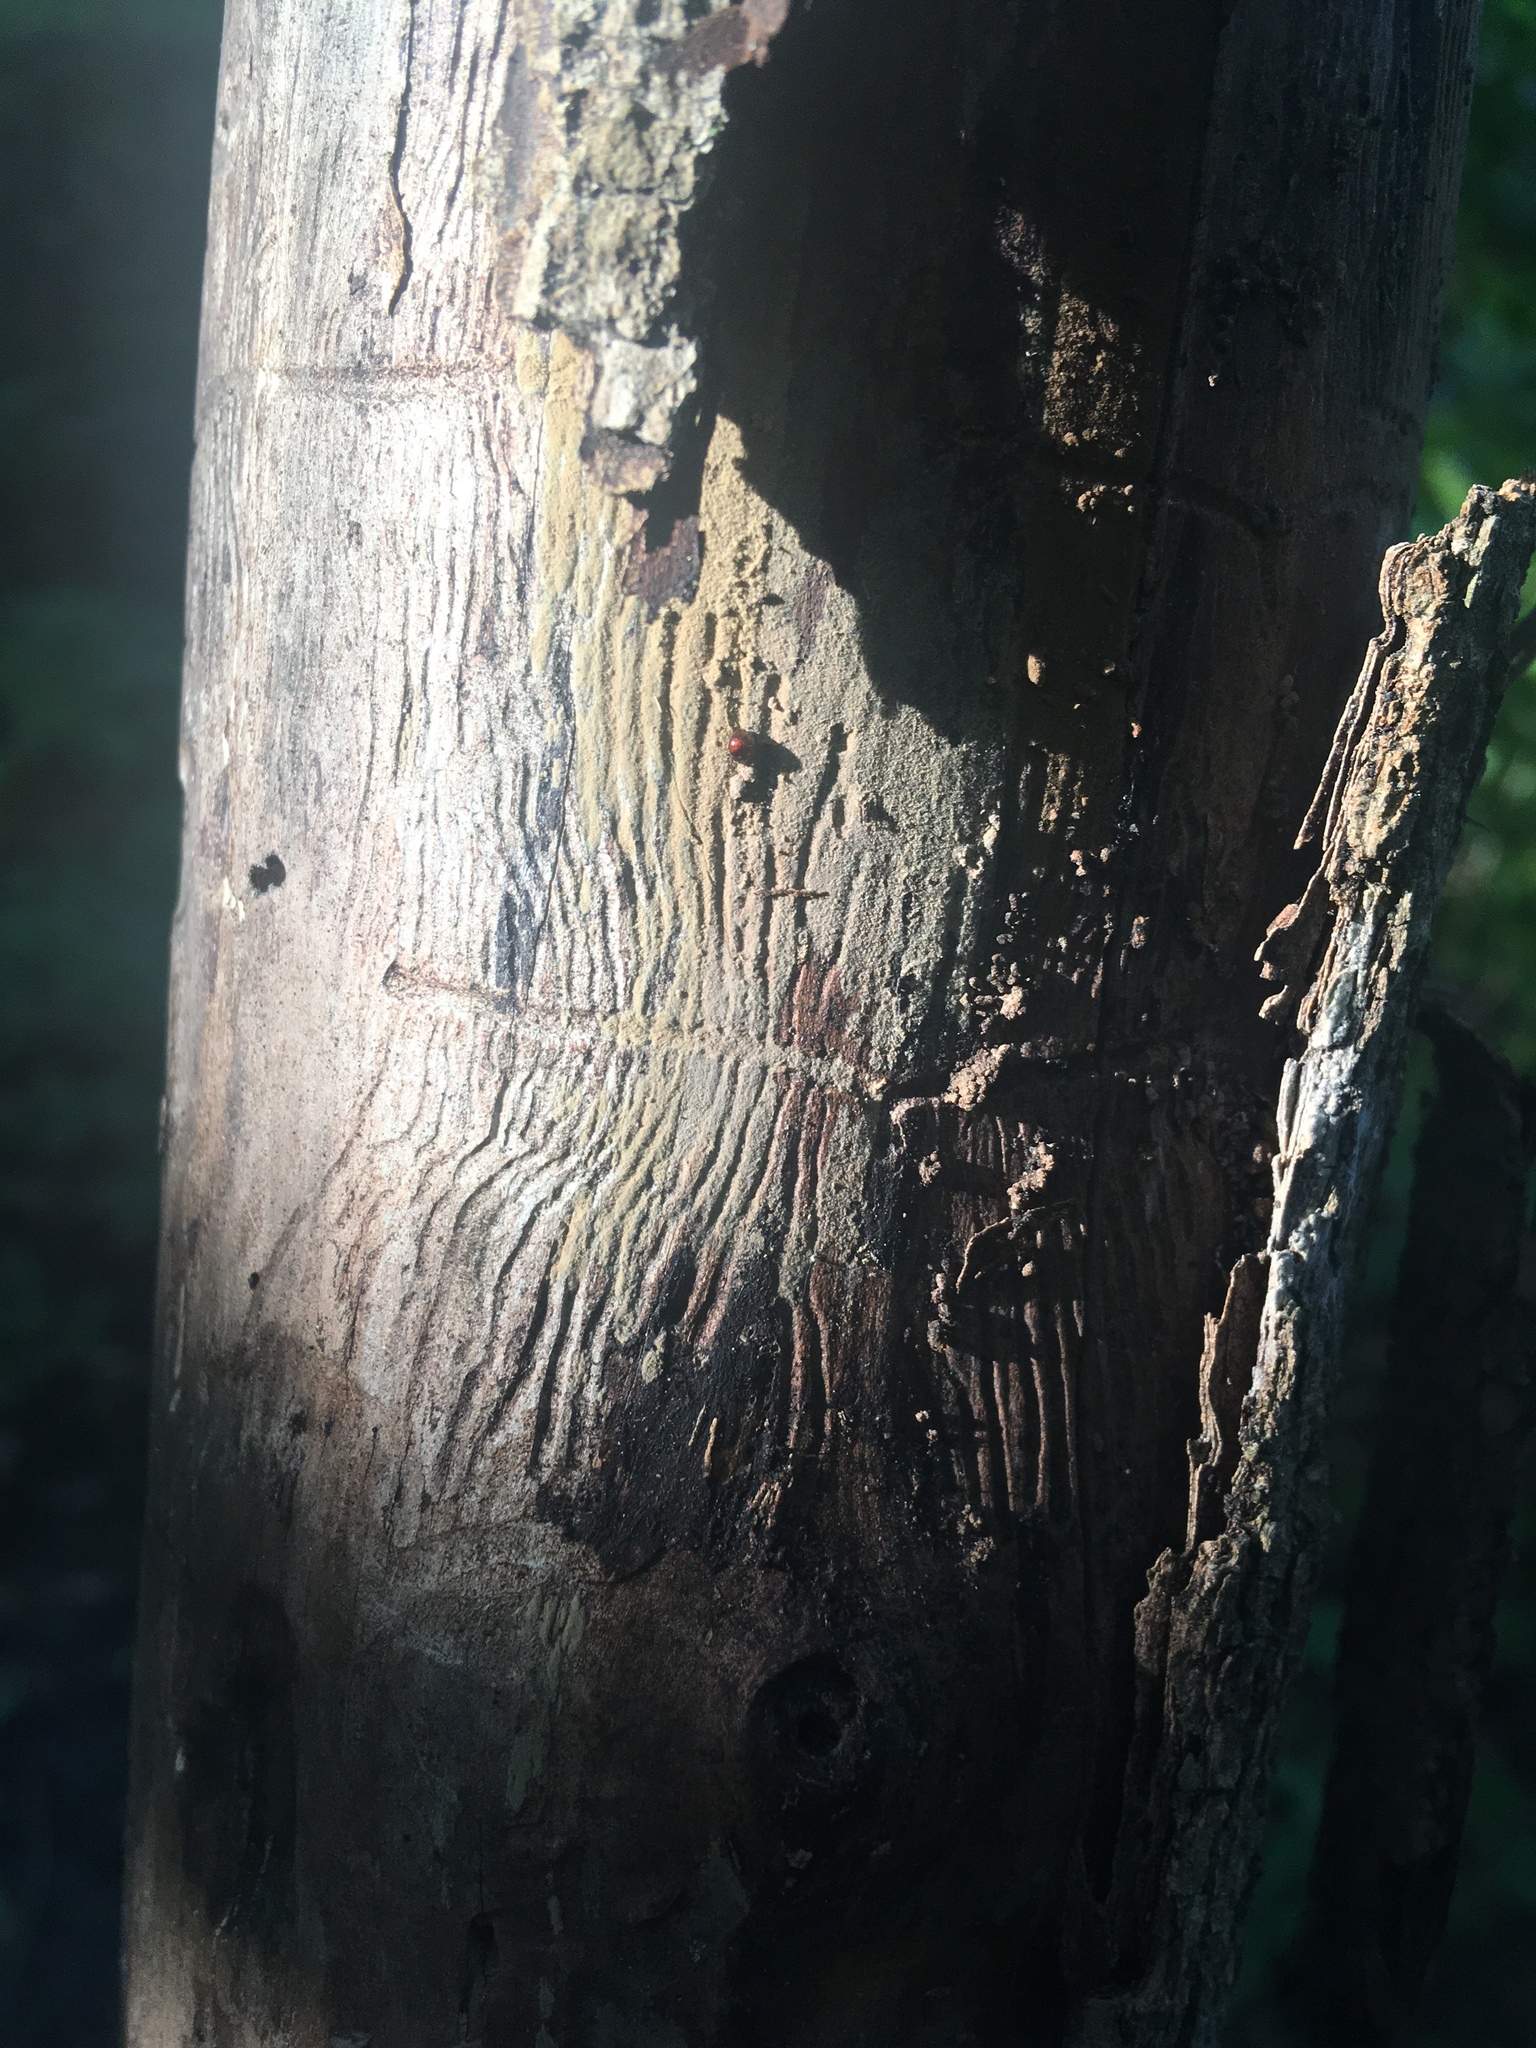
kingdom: Plantae
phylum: Tracheophyta
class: Magnoliopsida
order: Lamiales
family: Oleaceae
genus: Fraxinus
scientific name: Fraxinus pennsylvanica
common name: Green ash
